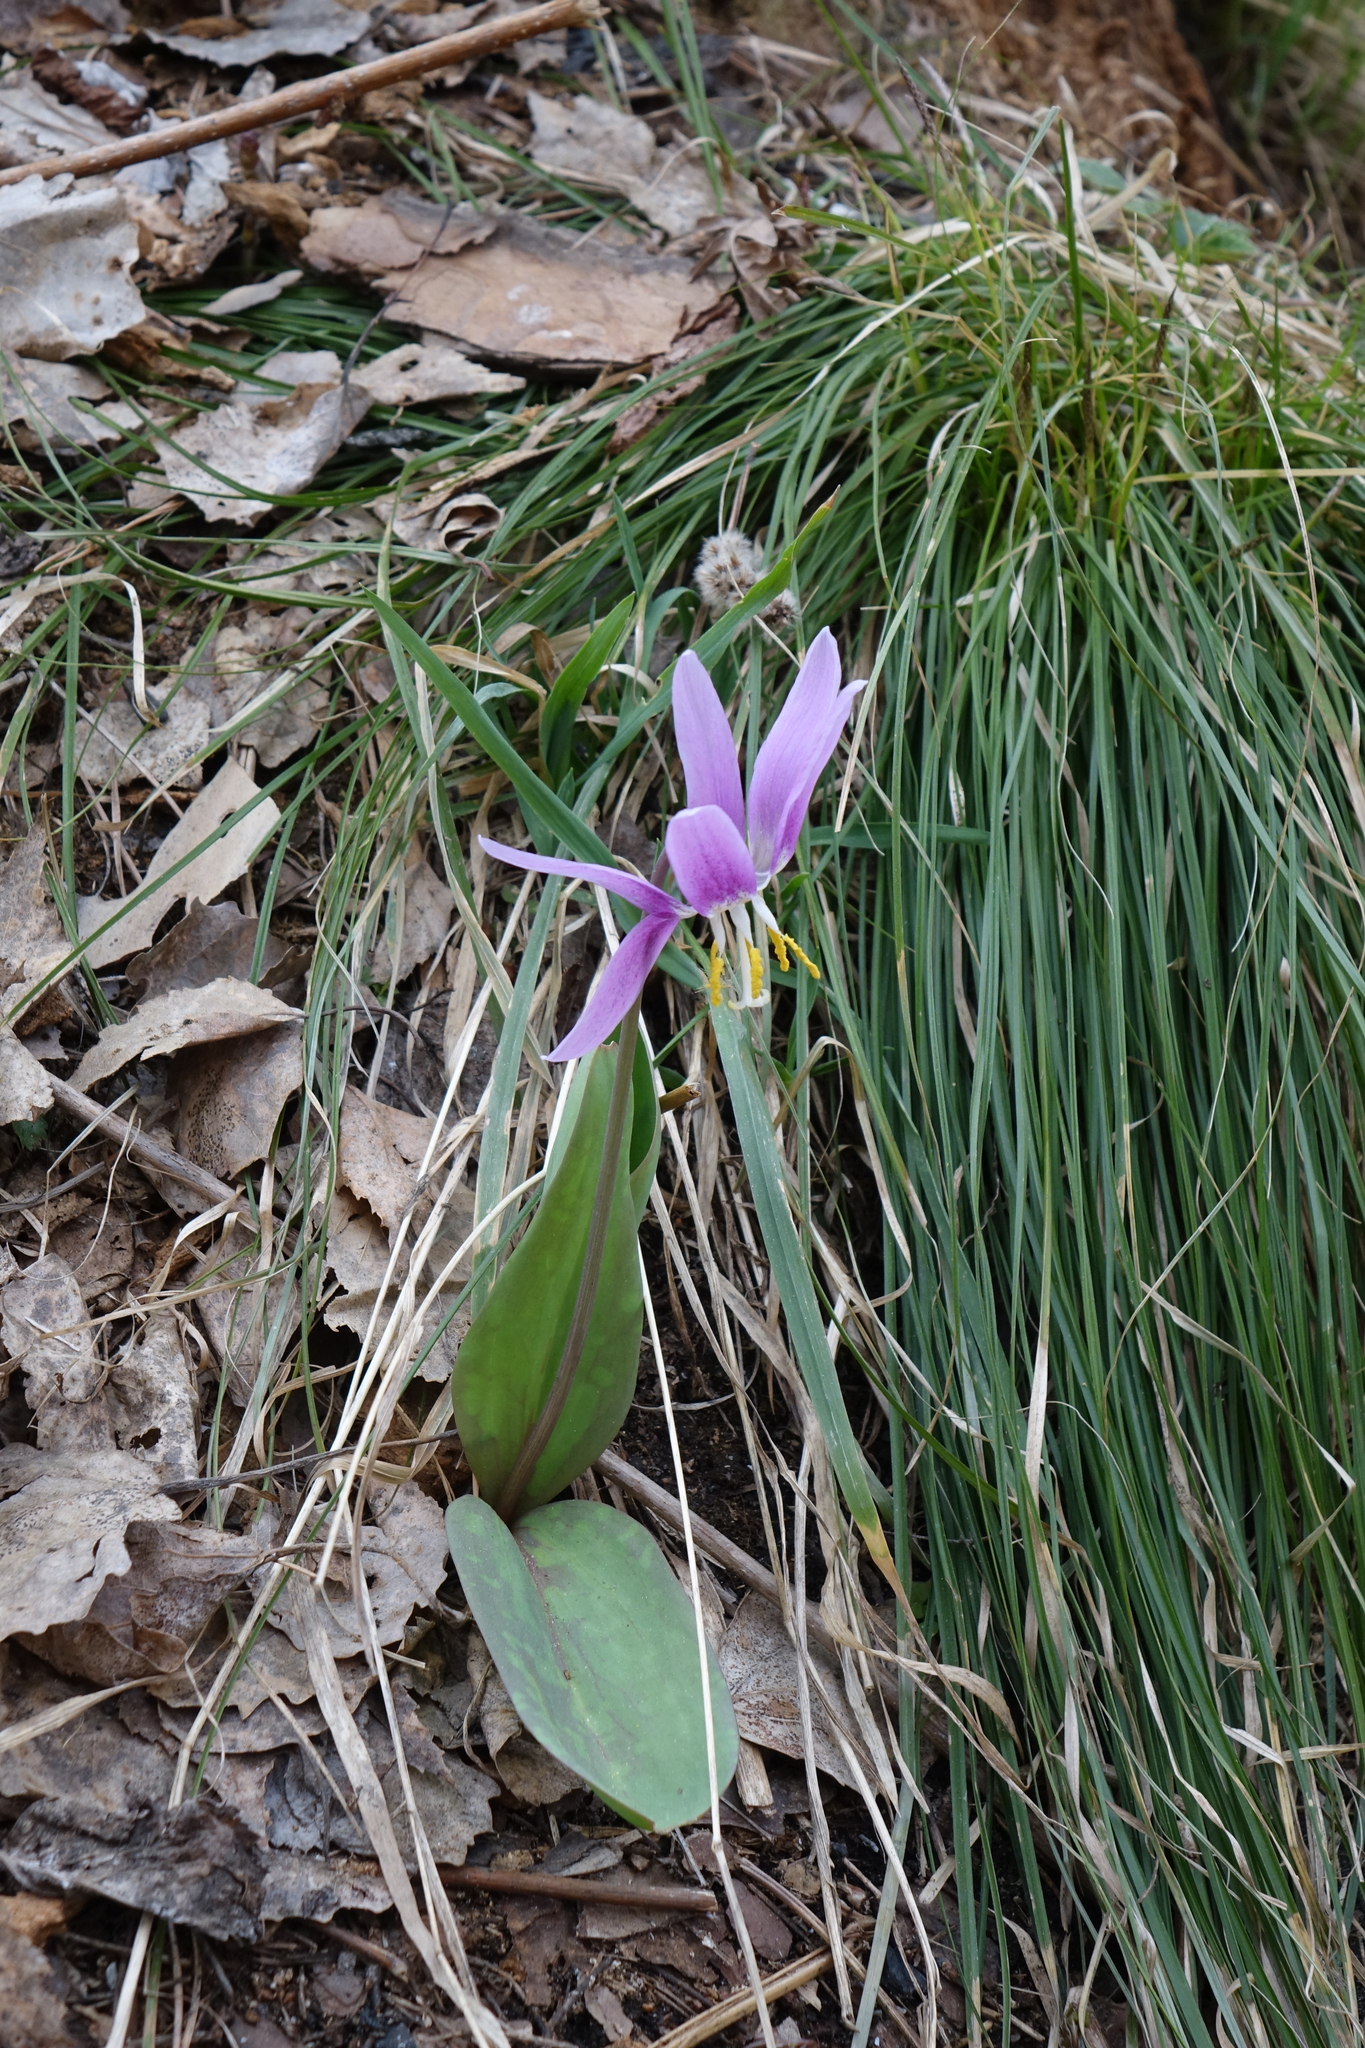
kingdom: Plantae
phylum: Tracheophyta
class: Liliopsida
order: Liliales
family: Liliaceae
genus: Erythronium
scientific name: Erythronium sibiricum
